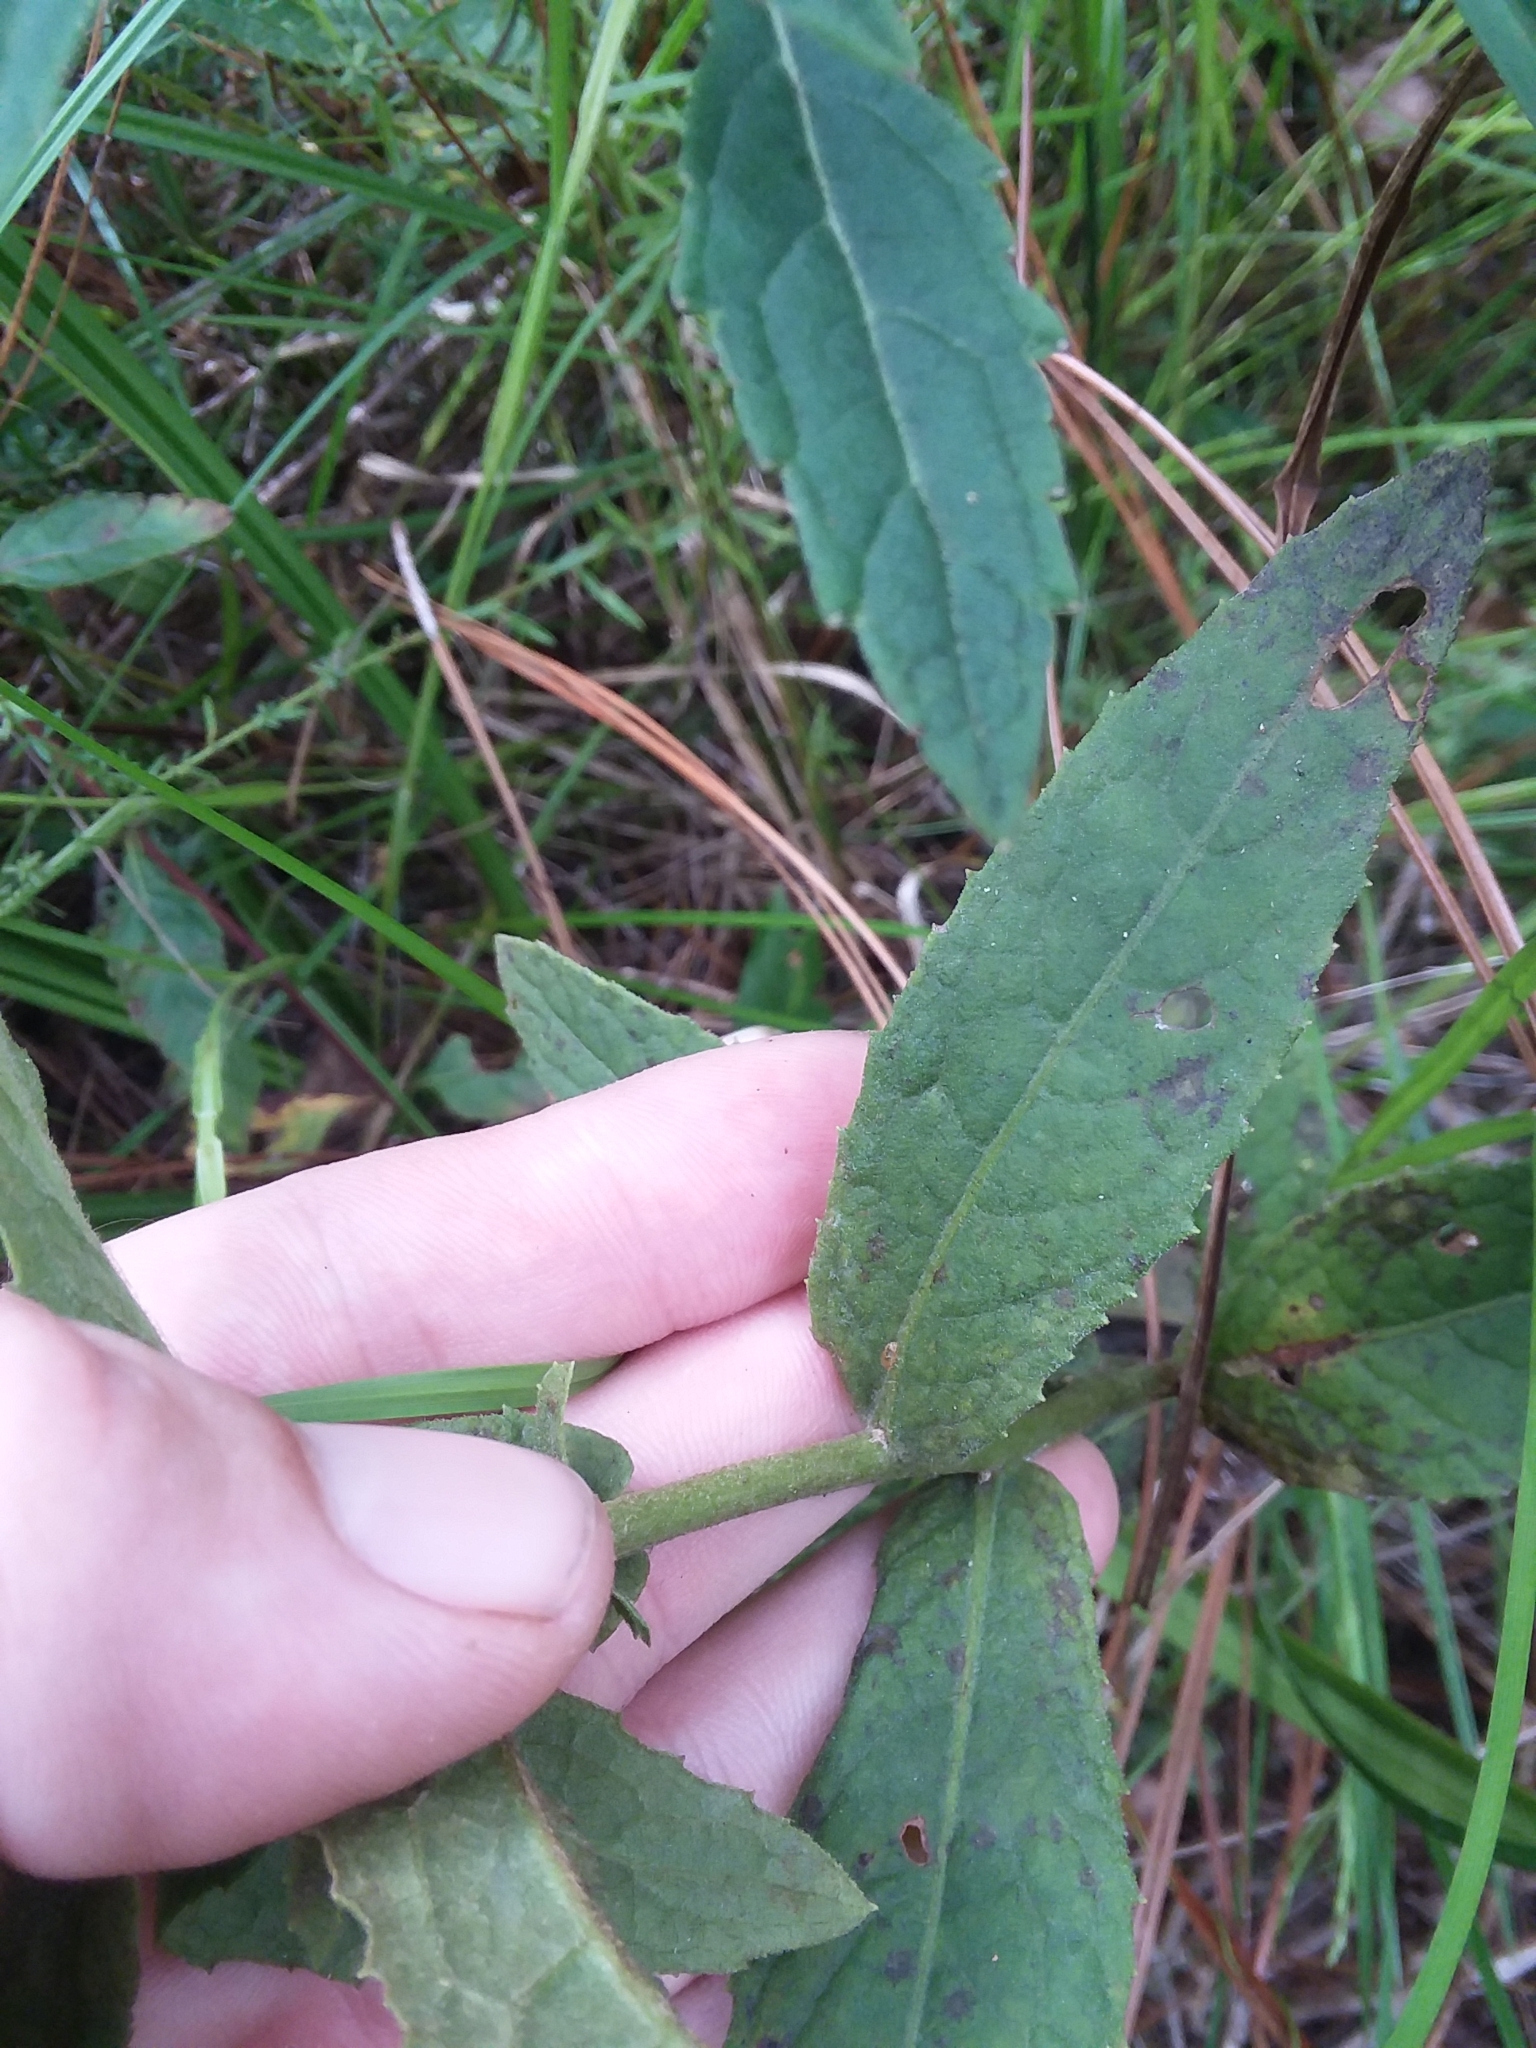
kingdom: Plantae
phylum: Tracheophyta
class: Magnoliopsida
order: Asterales
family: Asteraceae
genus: Pluchea
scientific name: Pluchea foetida
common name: Stinking camphorweed
